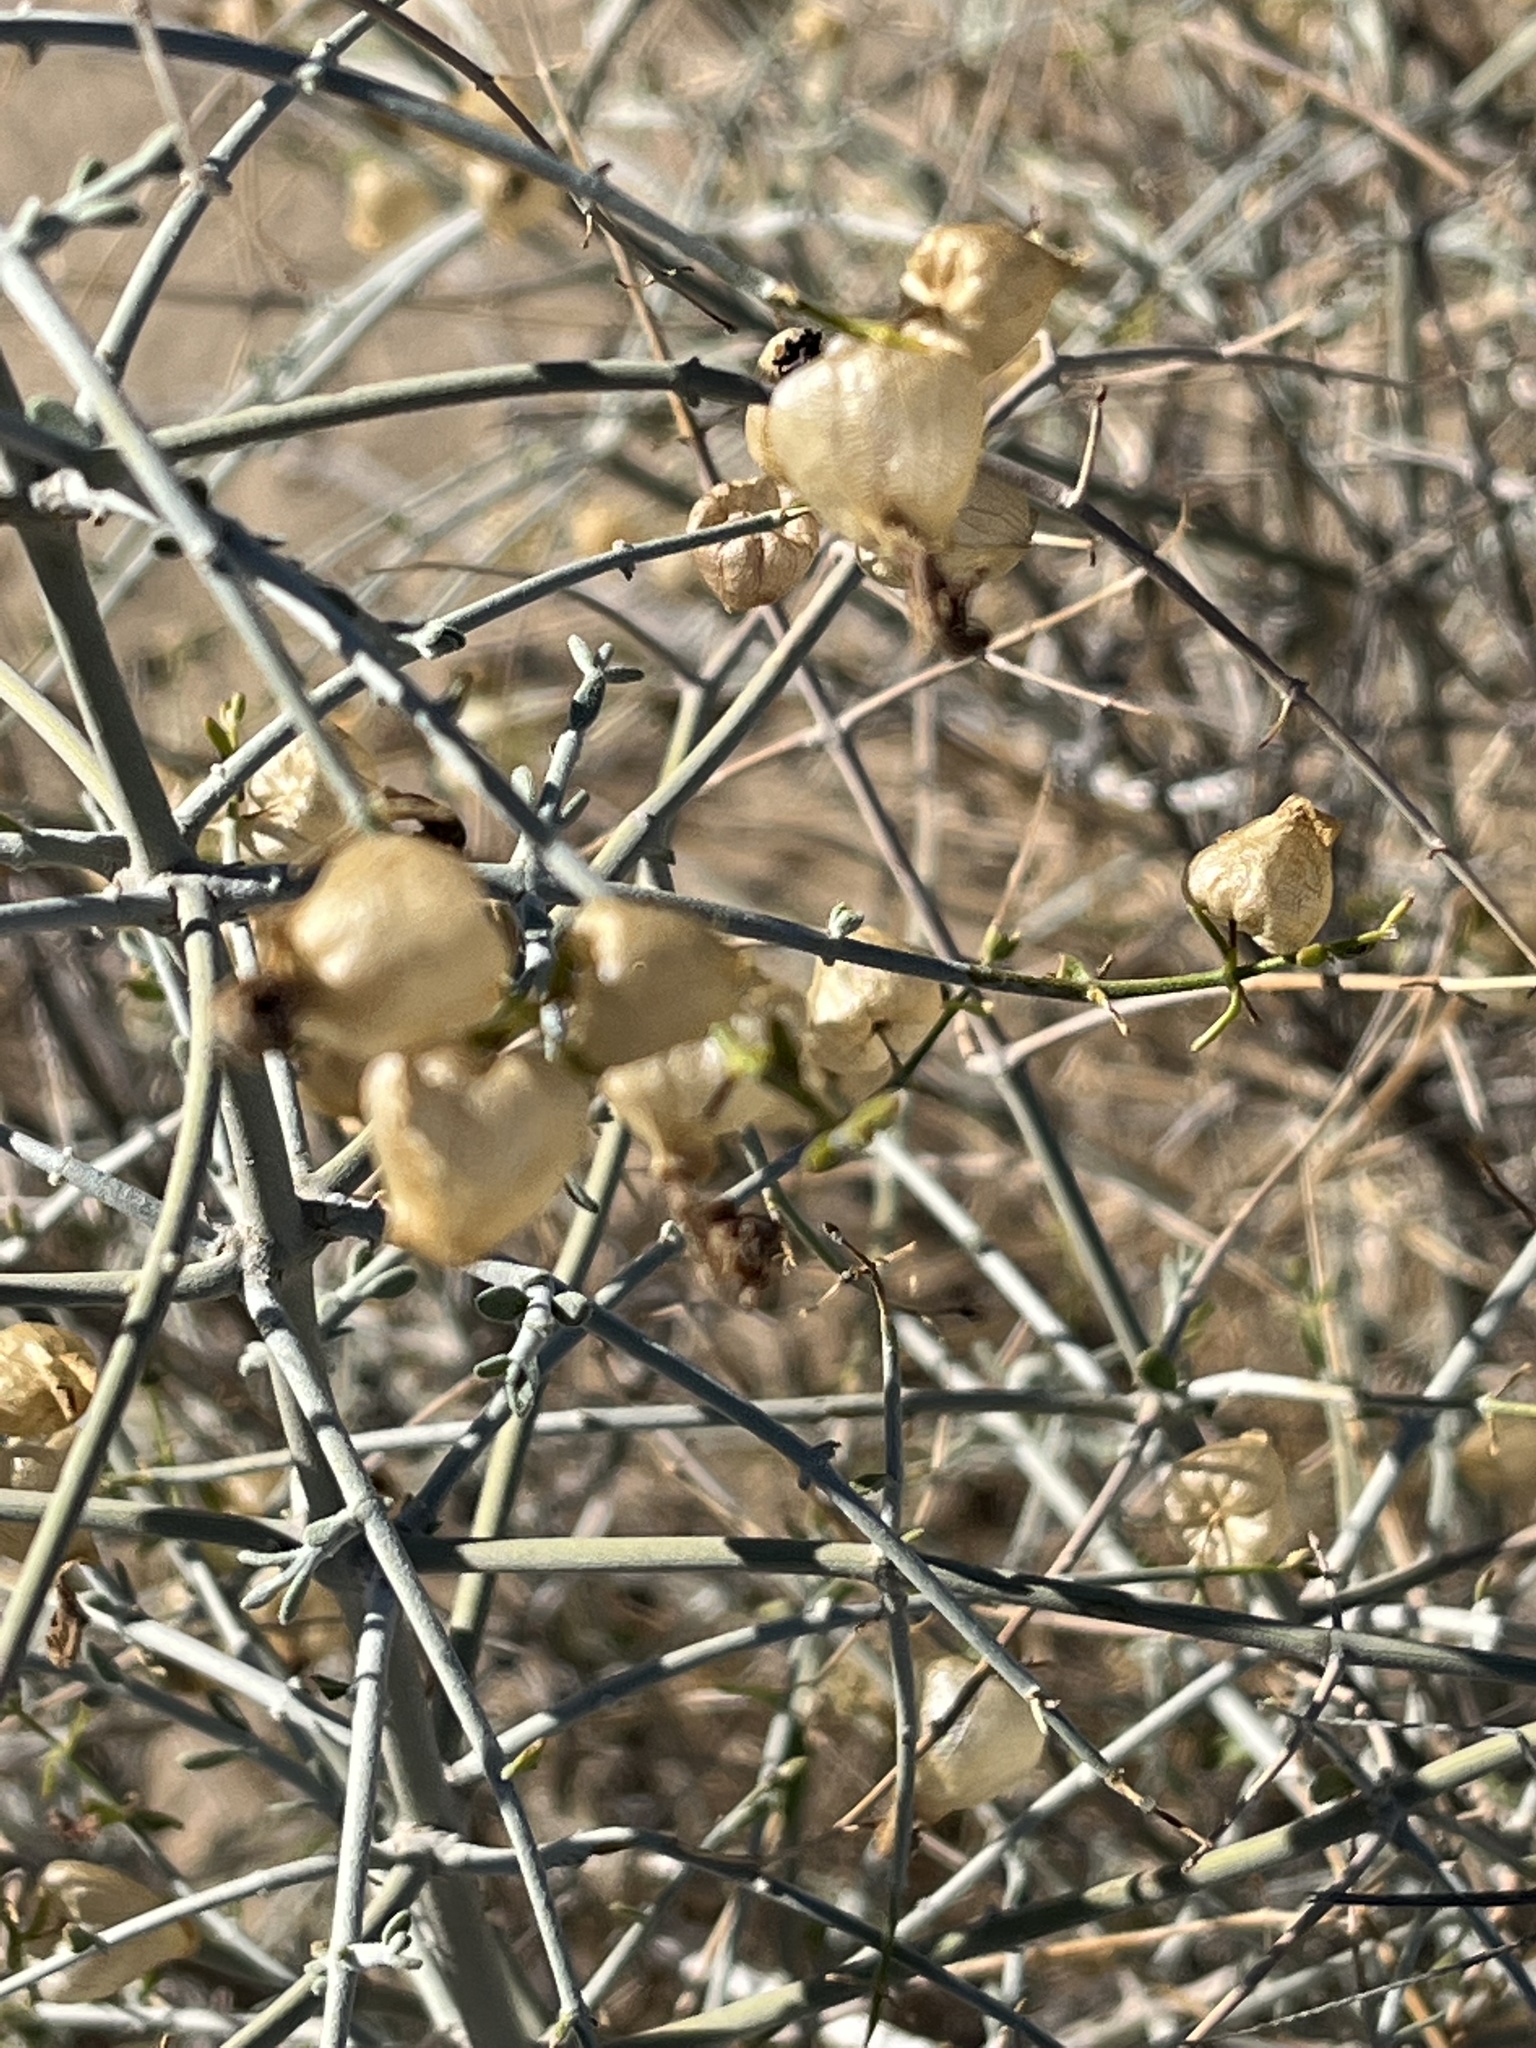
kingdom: Plantae
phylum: Tracheophyta
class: Magnoliopsida
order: Lamiales
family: Lamiaceae
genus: Scutellaria
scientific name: Scutellaria mexicana
